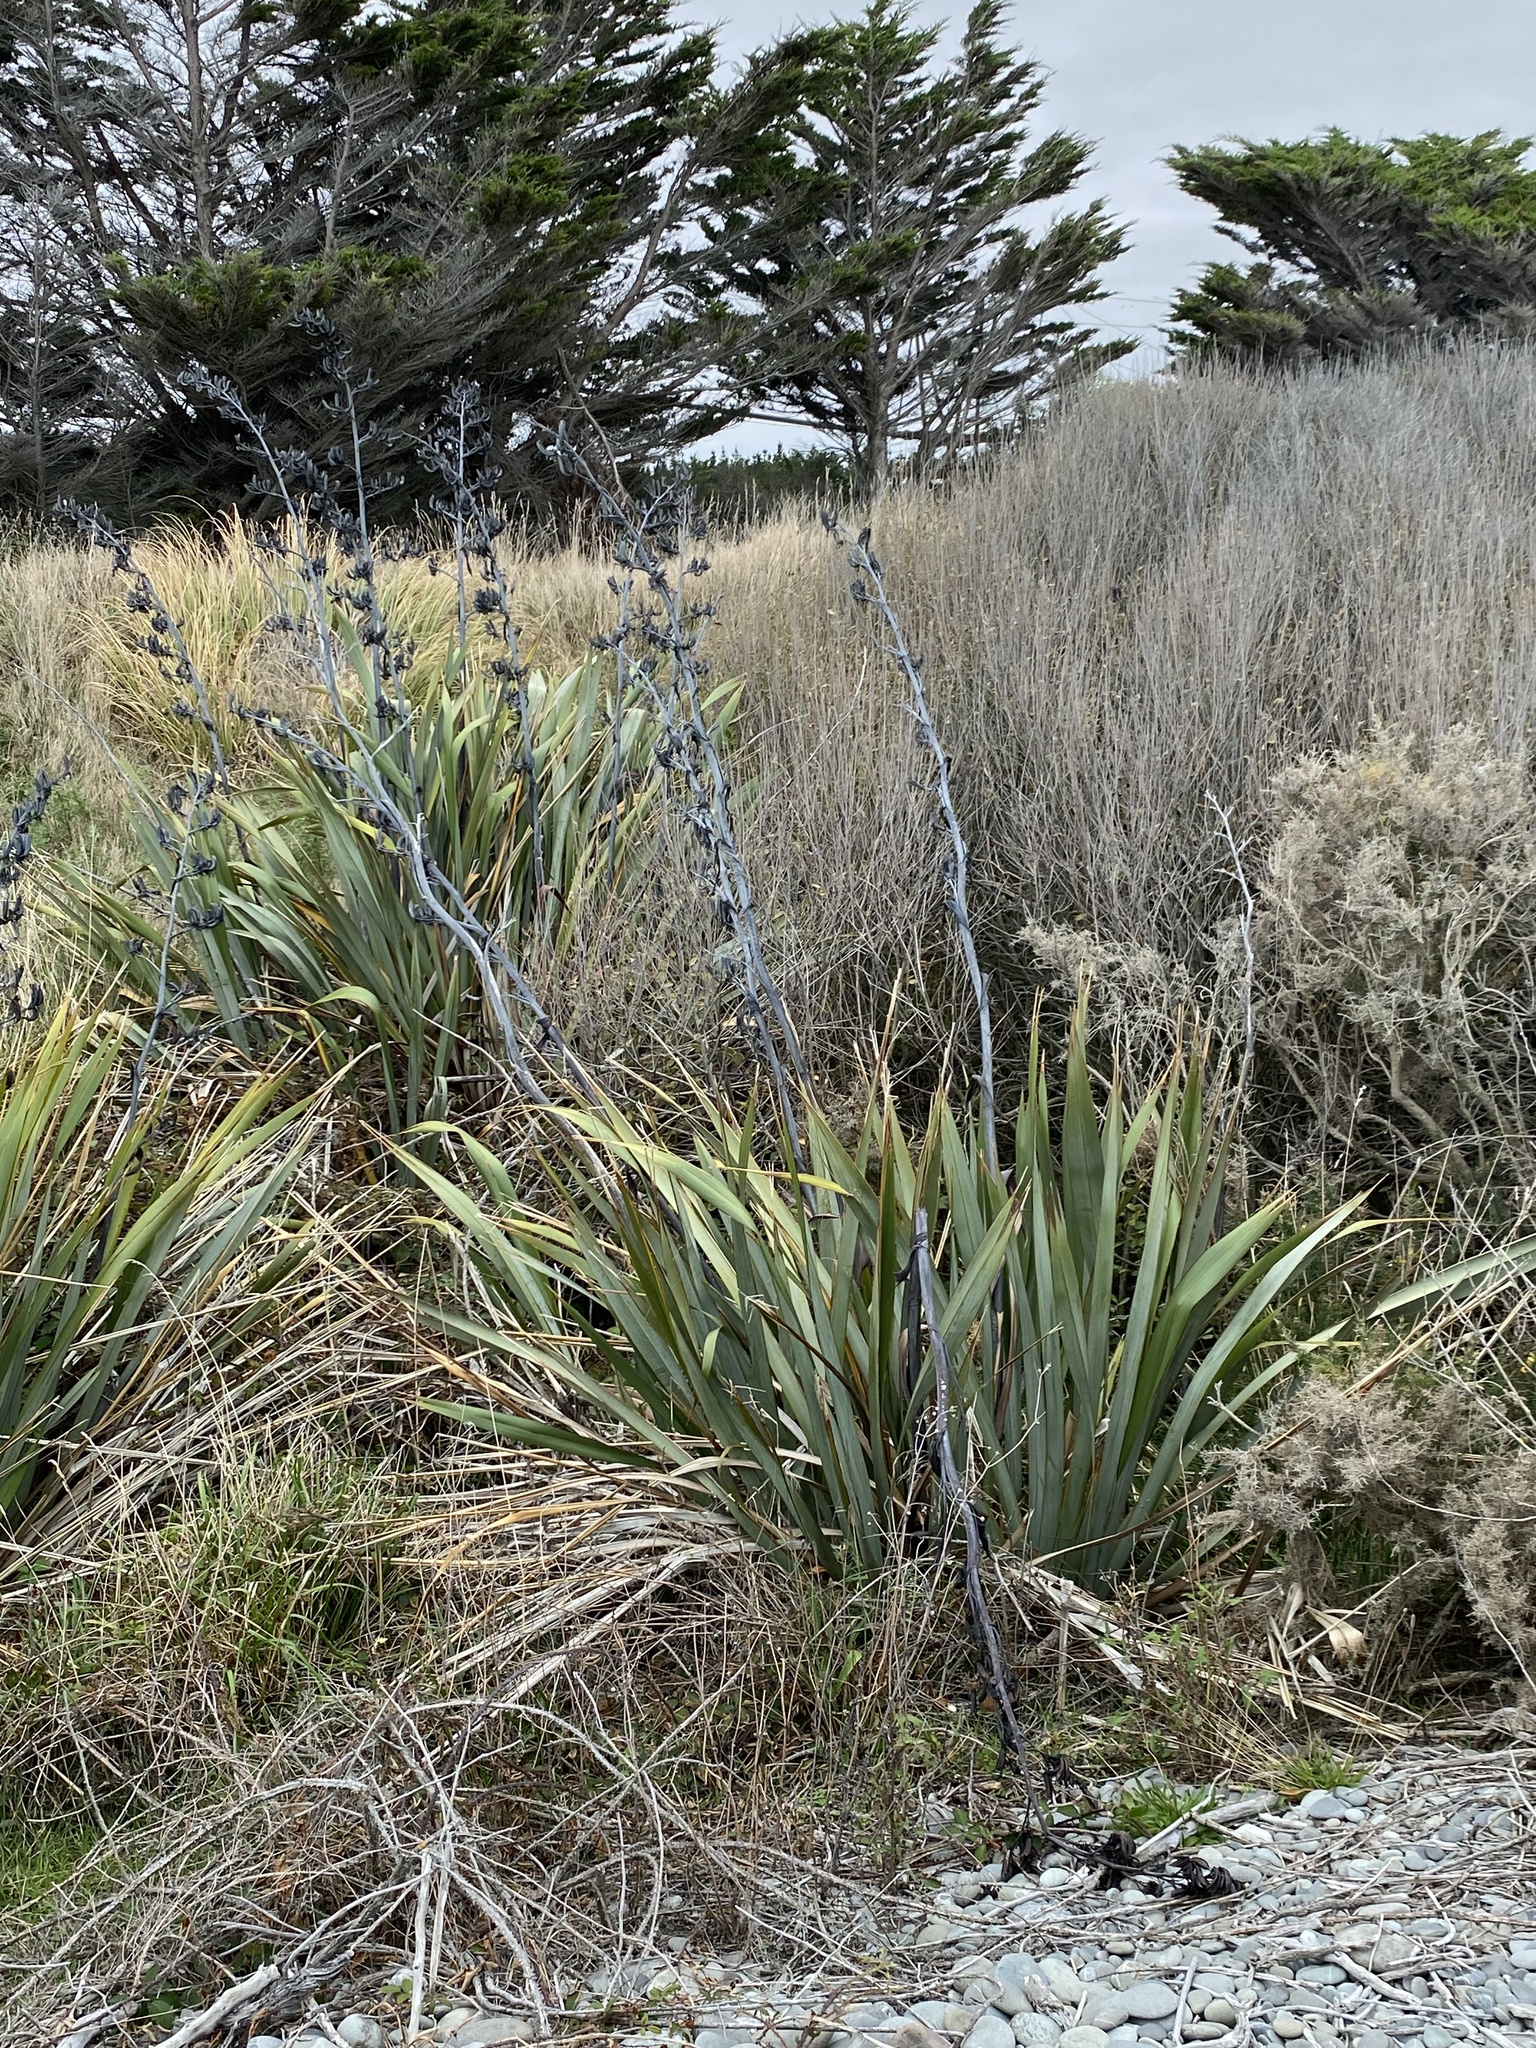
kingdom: Plantae
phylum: Tracheophyta
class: Liliopsida
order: Asparagales
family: Asphodelaceae
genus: Phormium
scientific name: Phormium tenax
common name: New zealand flax
